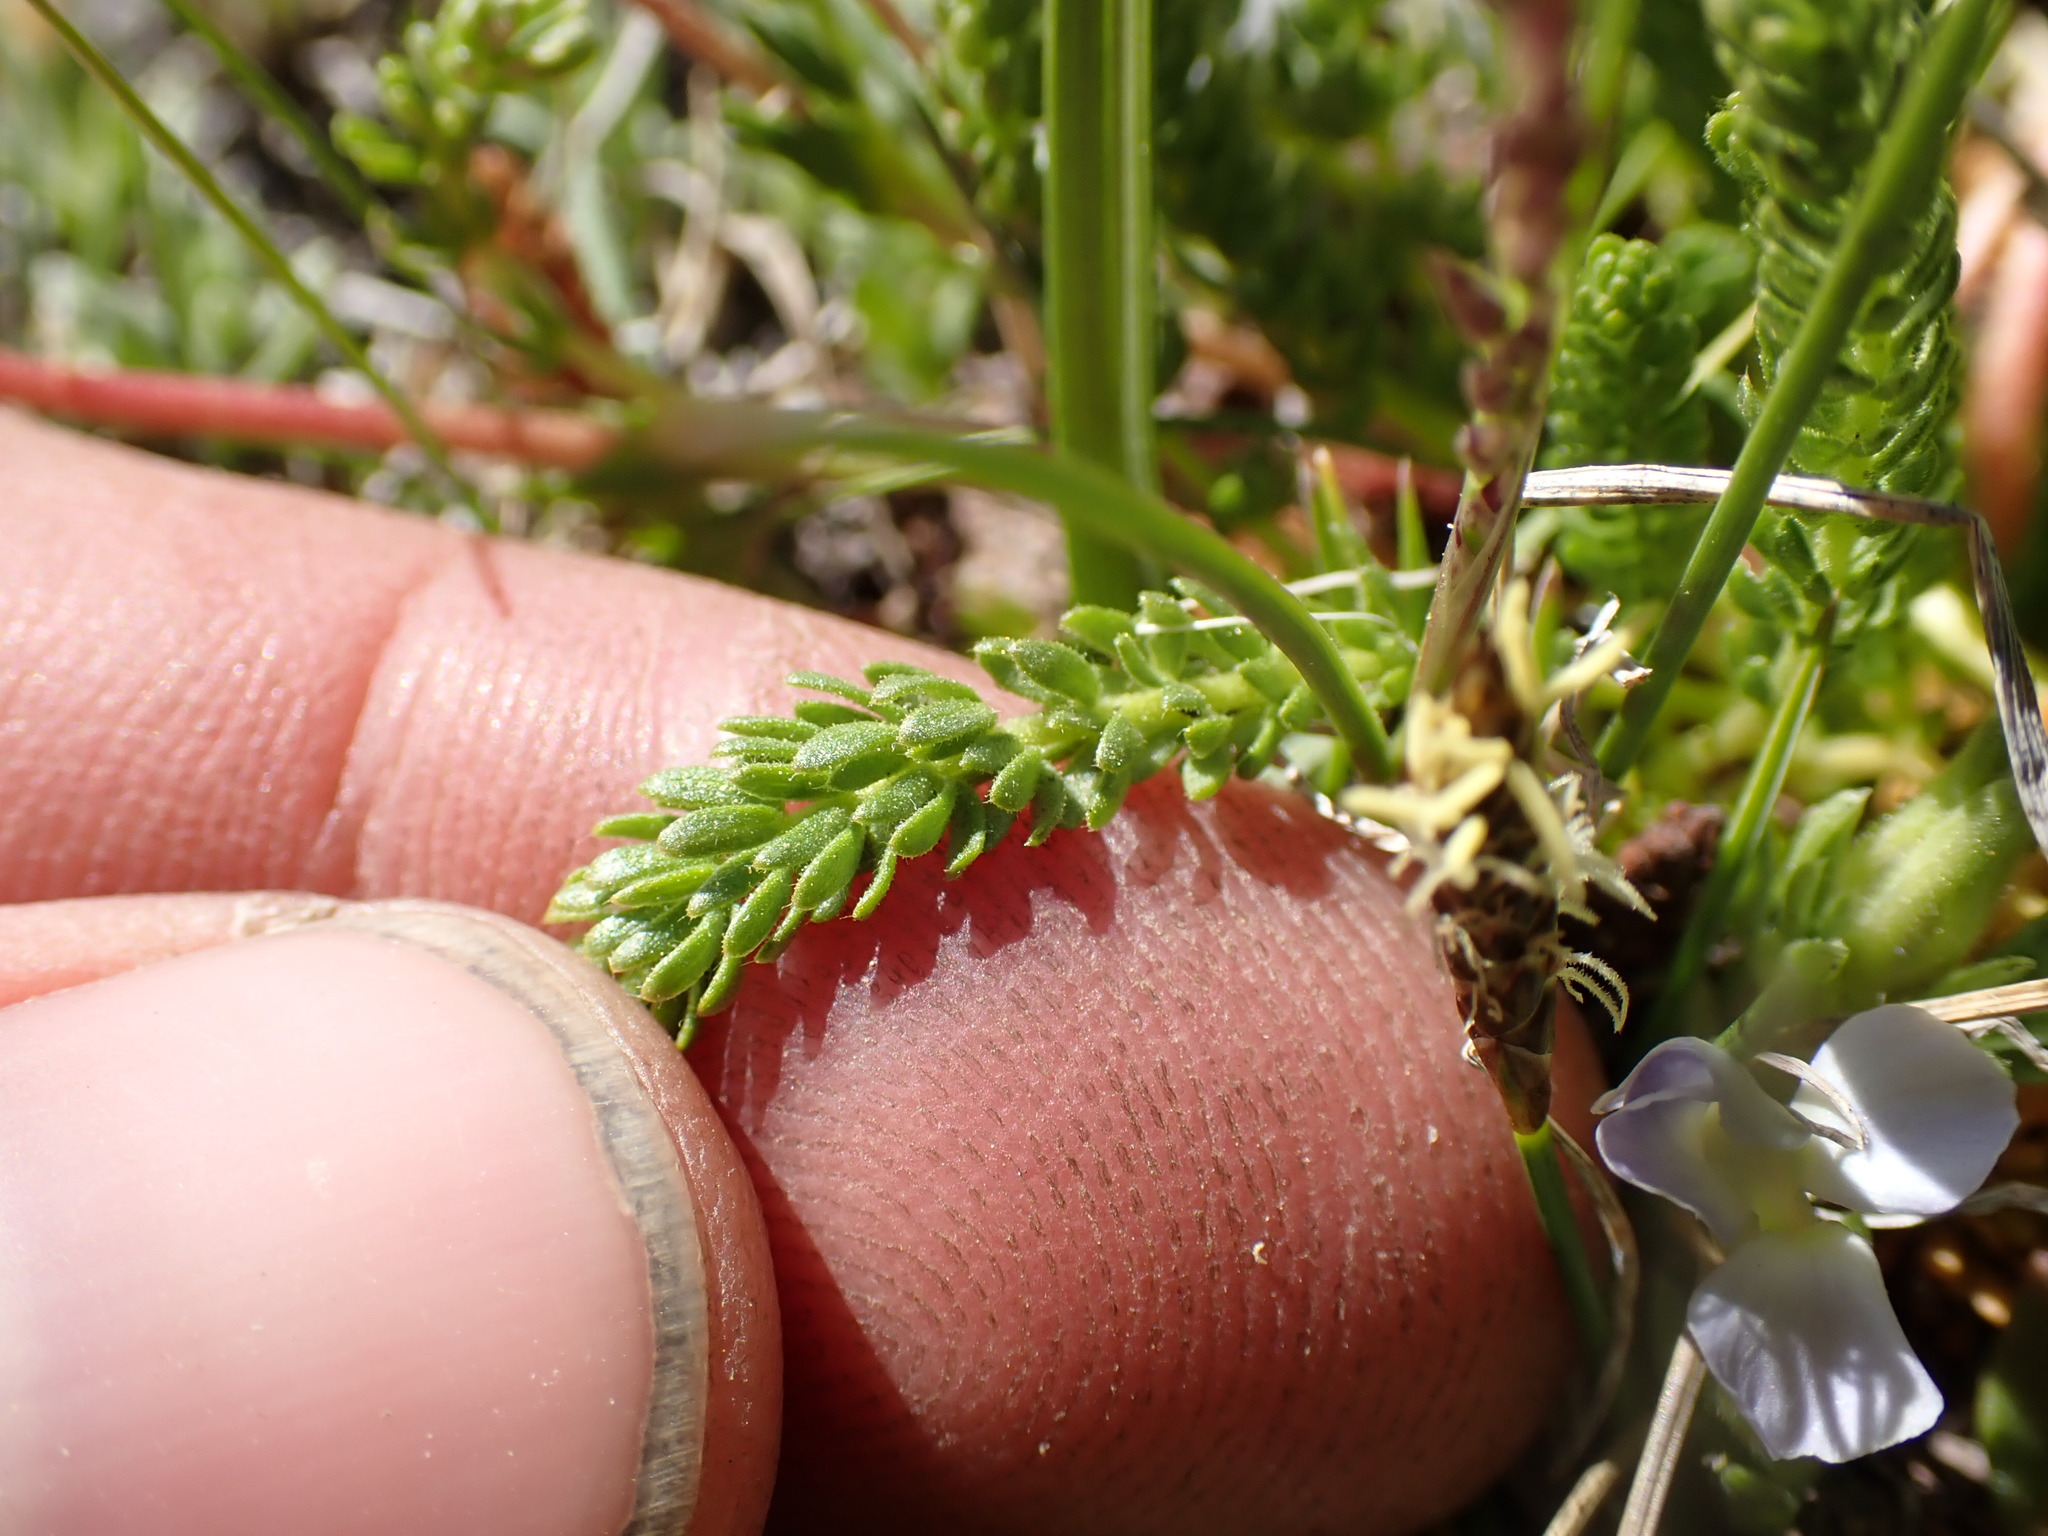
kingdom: Plantae
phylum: Tracheophyta
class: Magnoliopsida
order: Rosales
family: Rosaceae
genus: Potentilla
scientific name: Potentilla lycopodioides
